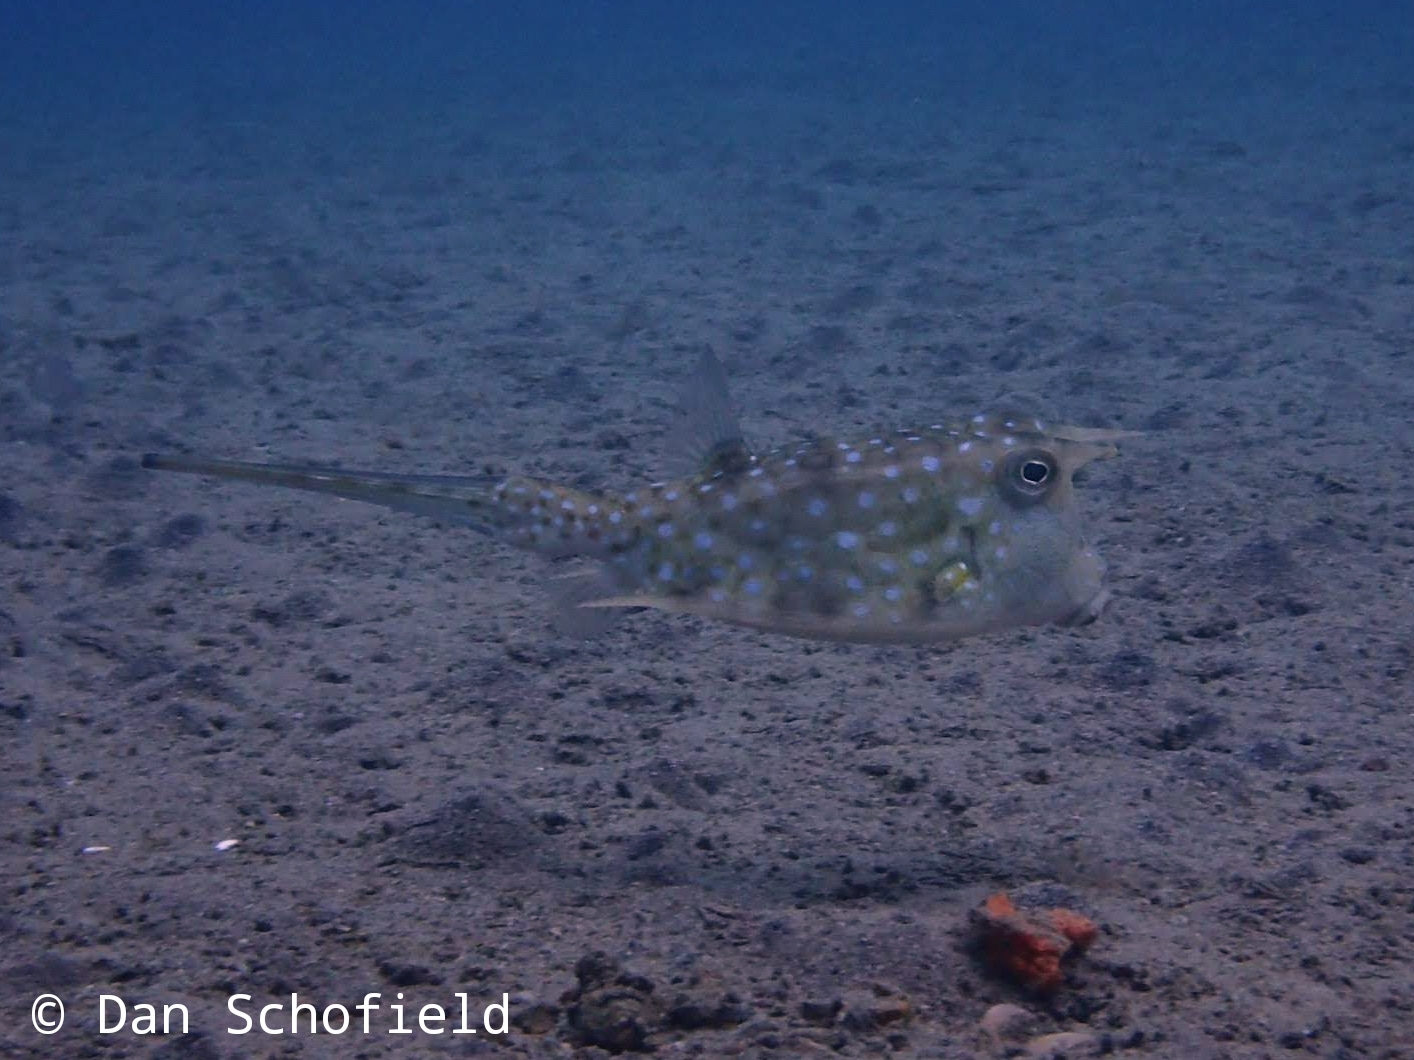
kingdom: Animalia
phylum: Chordata
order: Tetraodontiformes
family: Ostraciidae
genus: Lactoria
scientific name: Lactoria cornuta
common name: Longhorn cowfish
